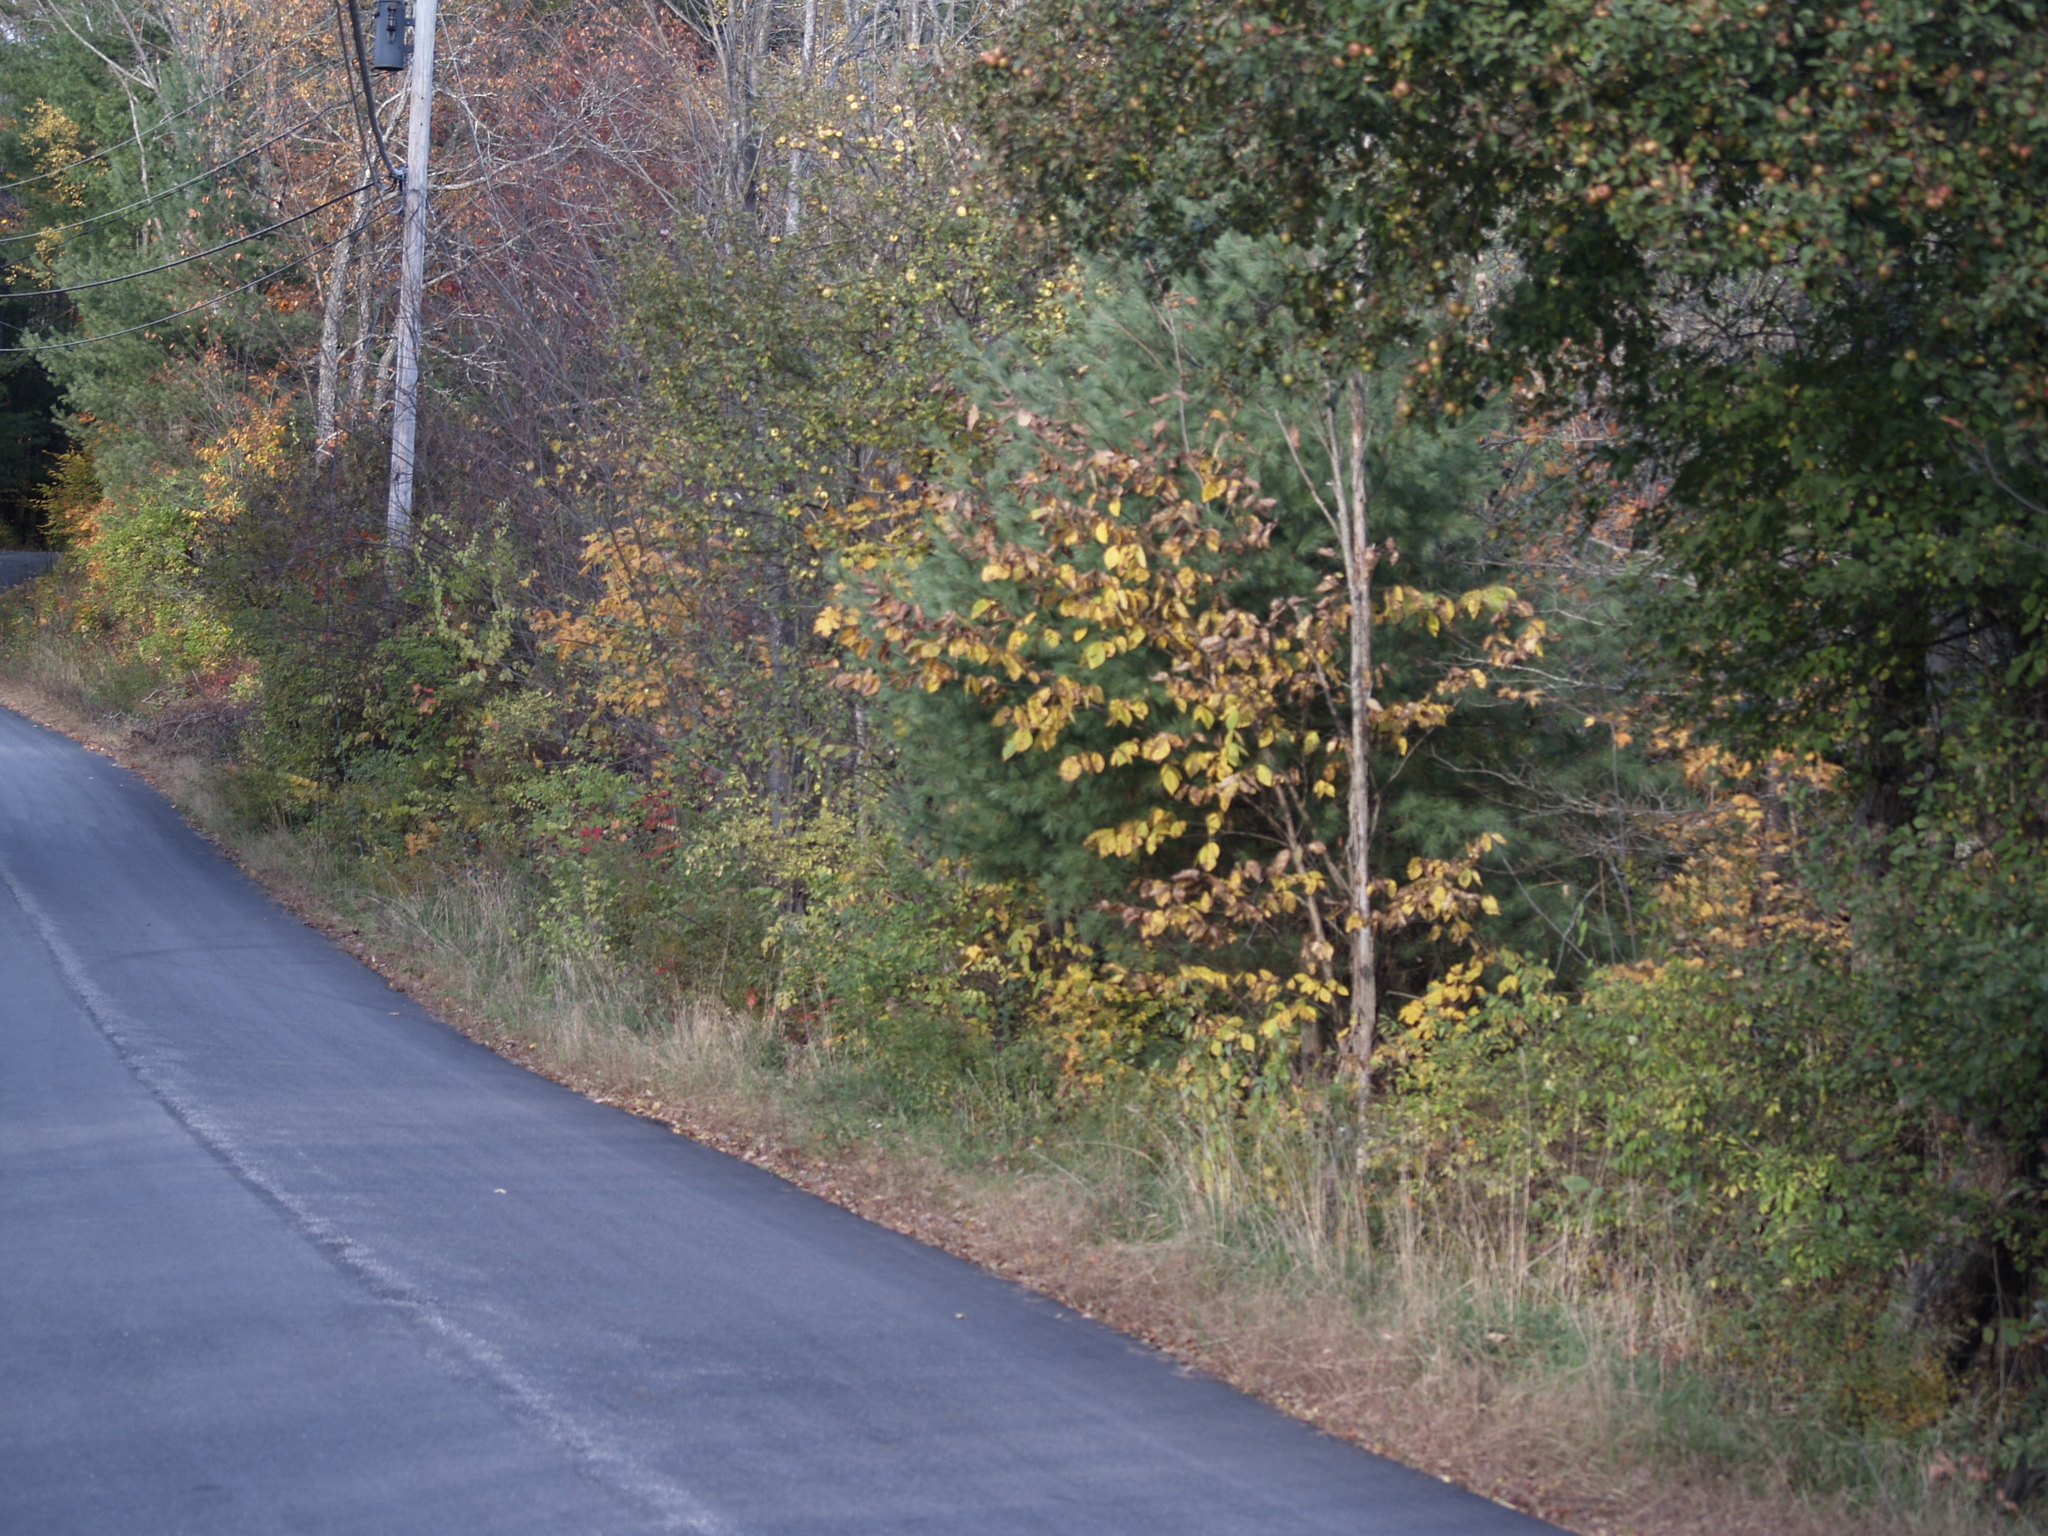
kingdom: Plantae
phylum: Tracheophyta
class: Pinopsida
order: Pinales
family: Pinaceae
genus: Pinus
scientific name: Pinus strobus
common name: Weymouth pine
